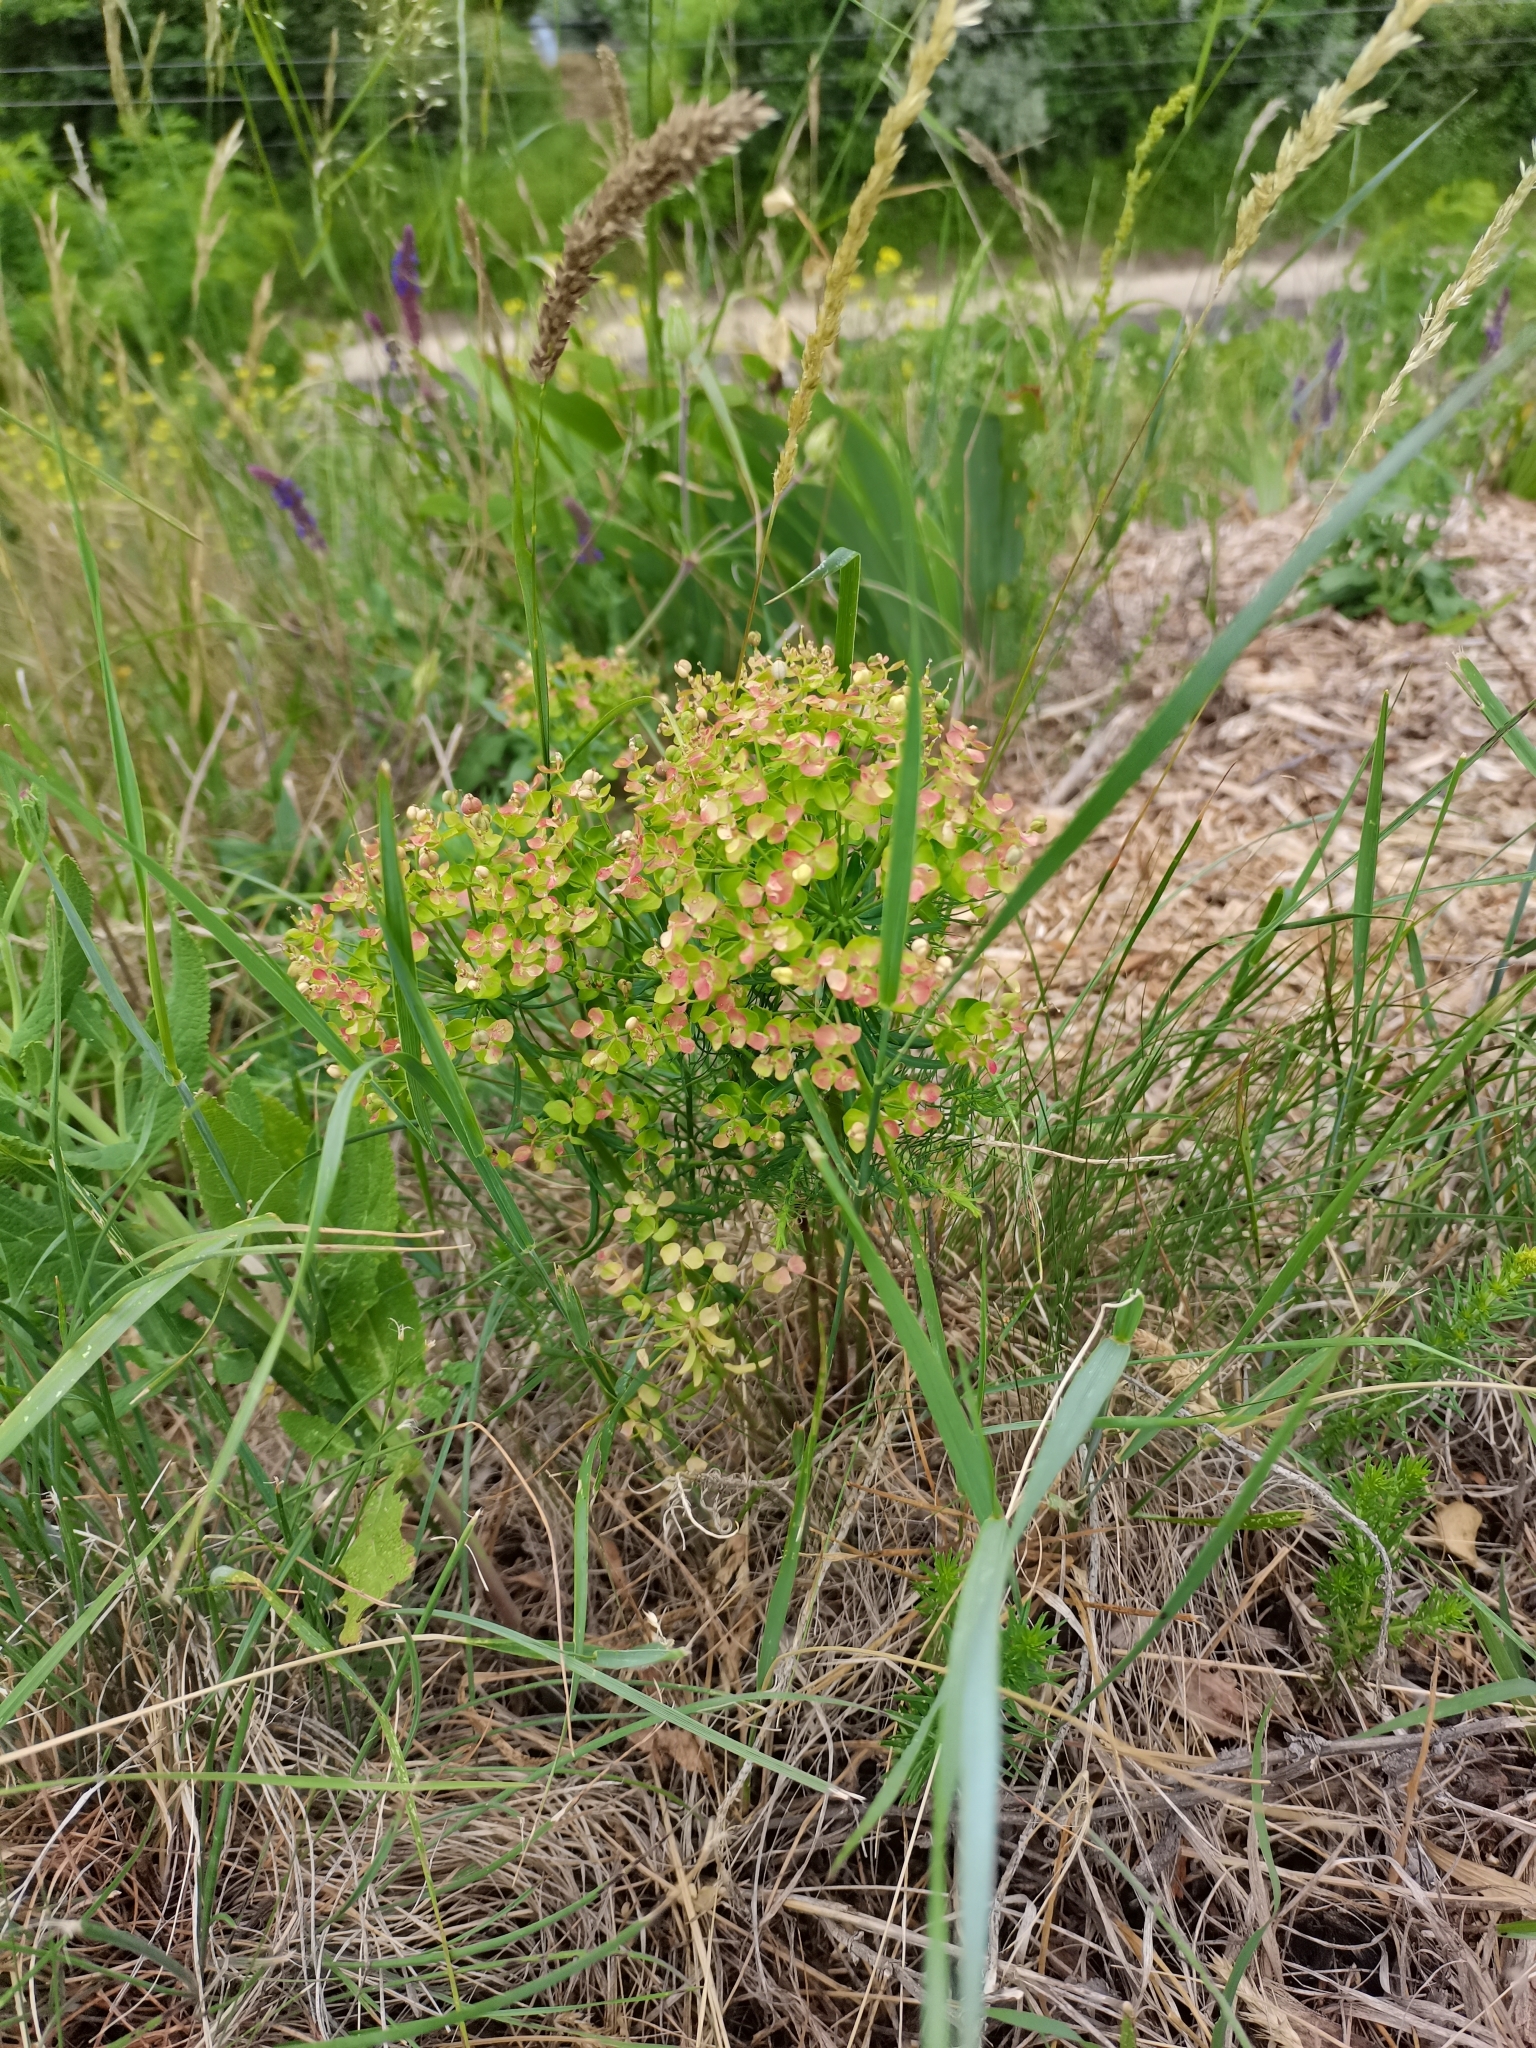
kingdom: Plantae
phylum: Tracheophyta
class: Magnoliopsida
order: Malpighiales
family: Euphorbiaceae
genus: Euphorbia
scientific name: Euphorbia cyparissias
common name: Cypress spurge
